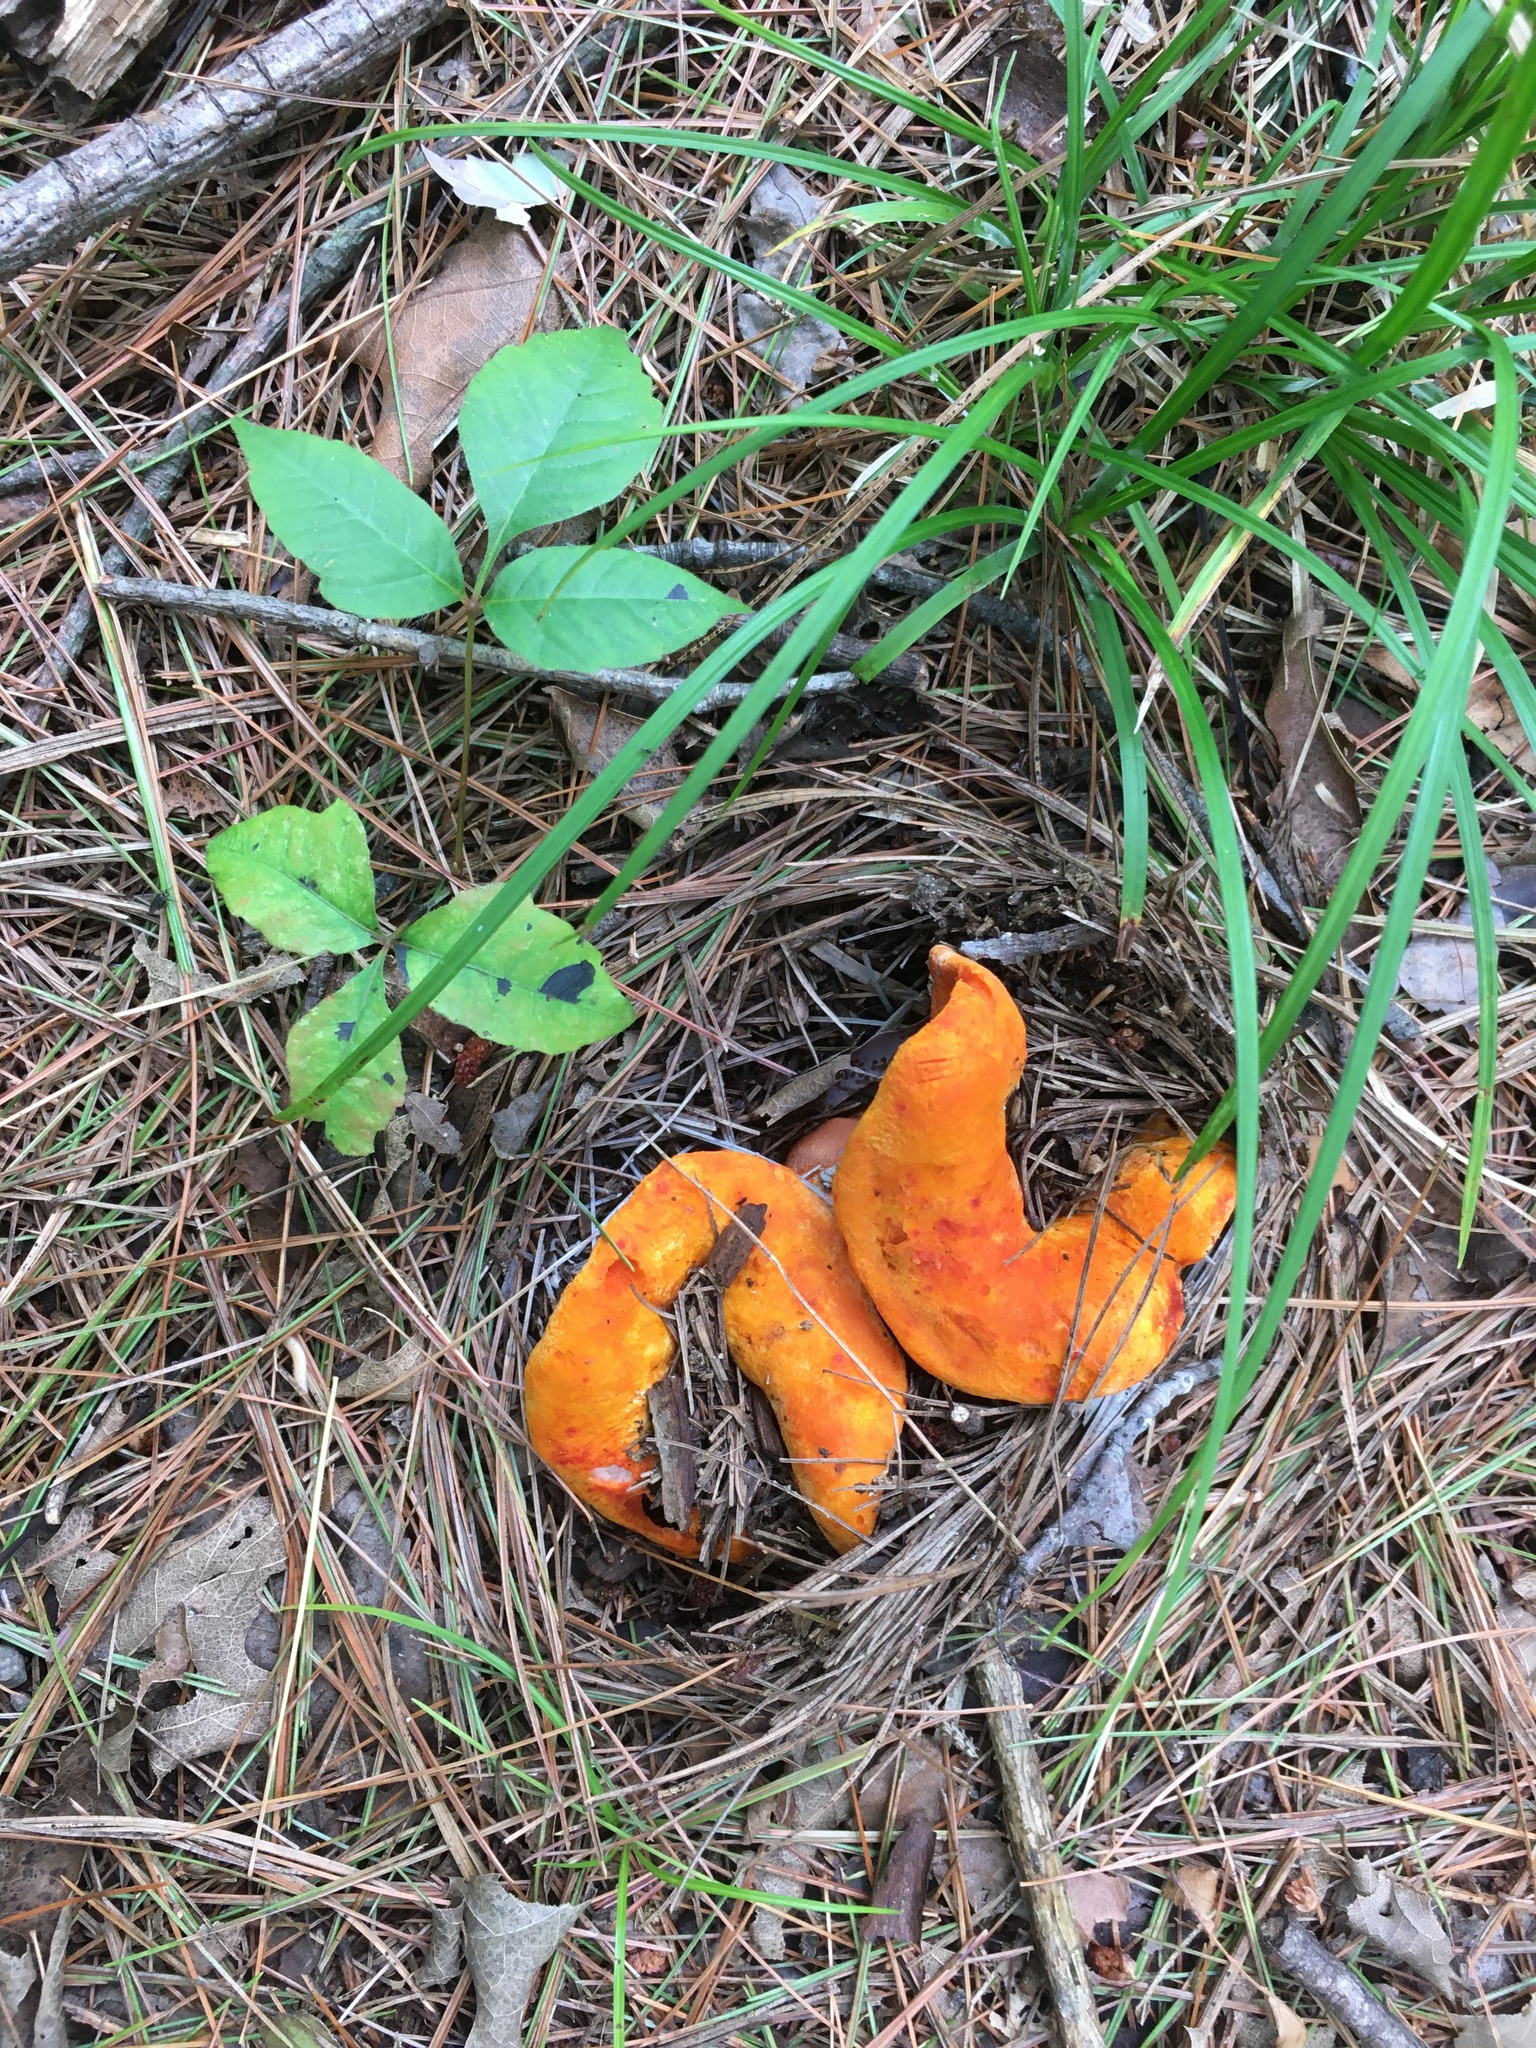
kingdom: Fungi
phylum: Ascomycota
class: Sordariomycetes
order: Hypocreales
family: Hypocreaceae
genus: Hypomyces
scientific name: Hypomyces lactifluorum
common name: Lobster mushroom
